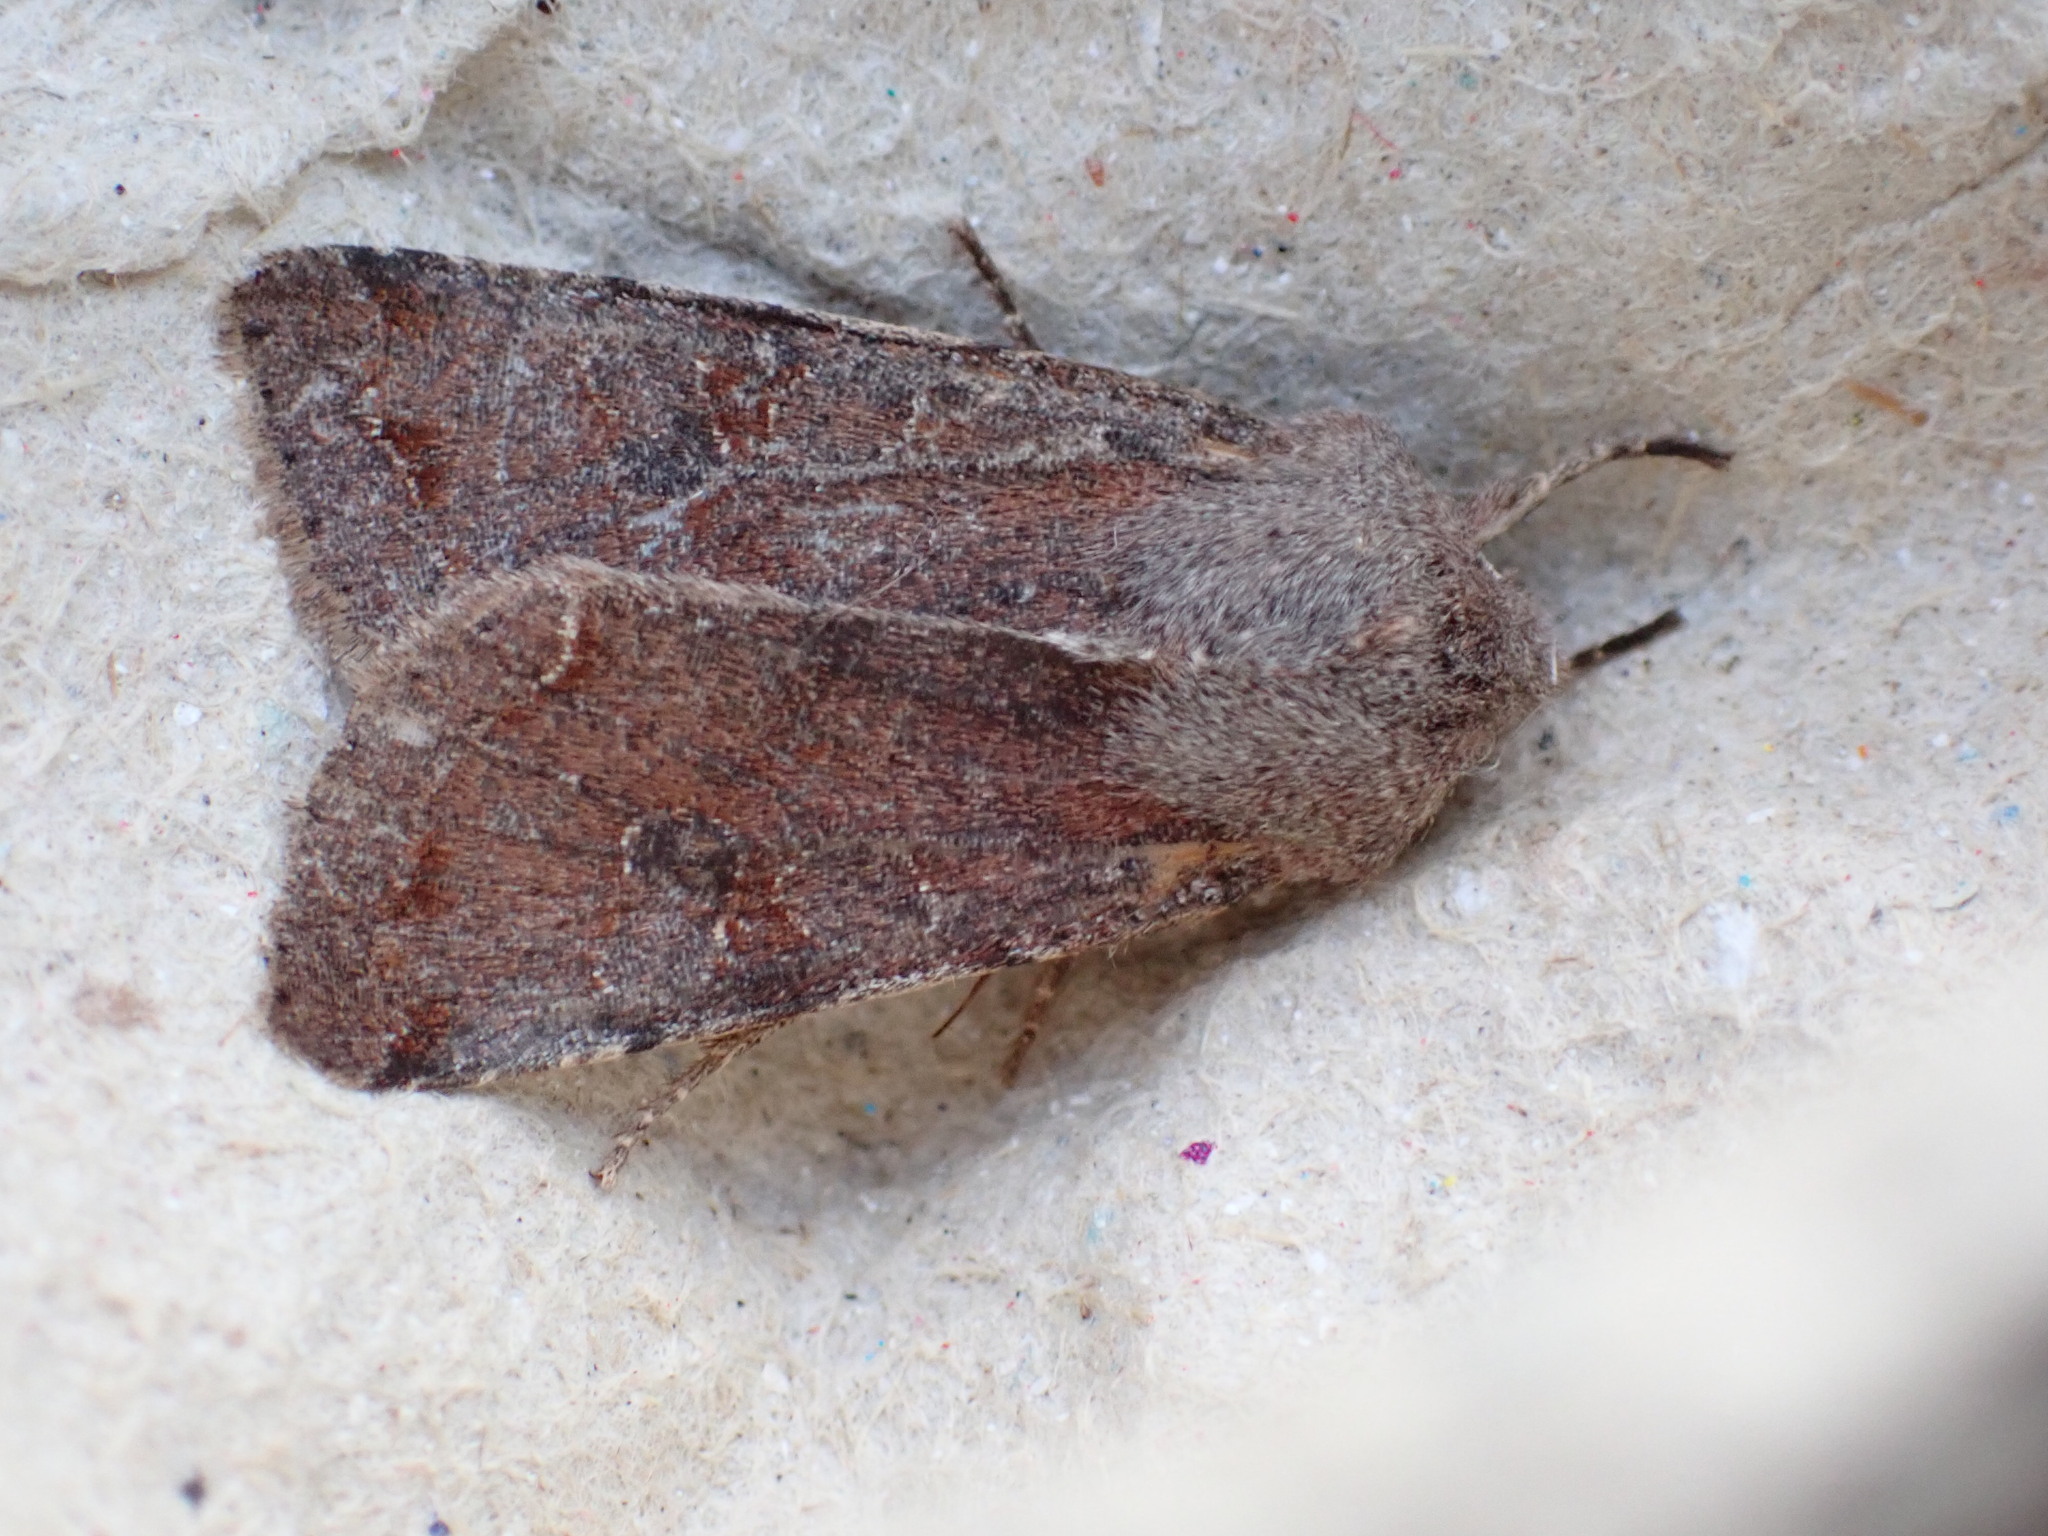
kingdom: Animalia
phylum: Arthropoda
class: Insecta
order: Lepidoptera
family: Noctuidae
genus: Orthosia
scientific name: Orthosia incerta
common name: Clouded drab
